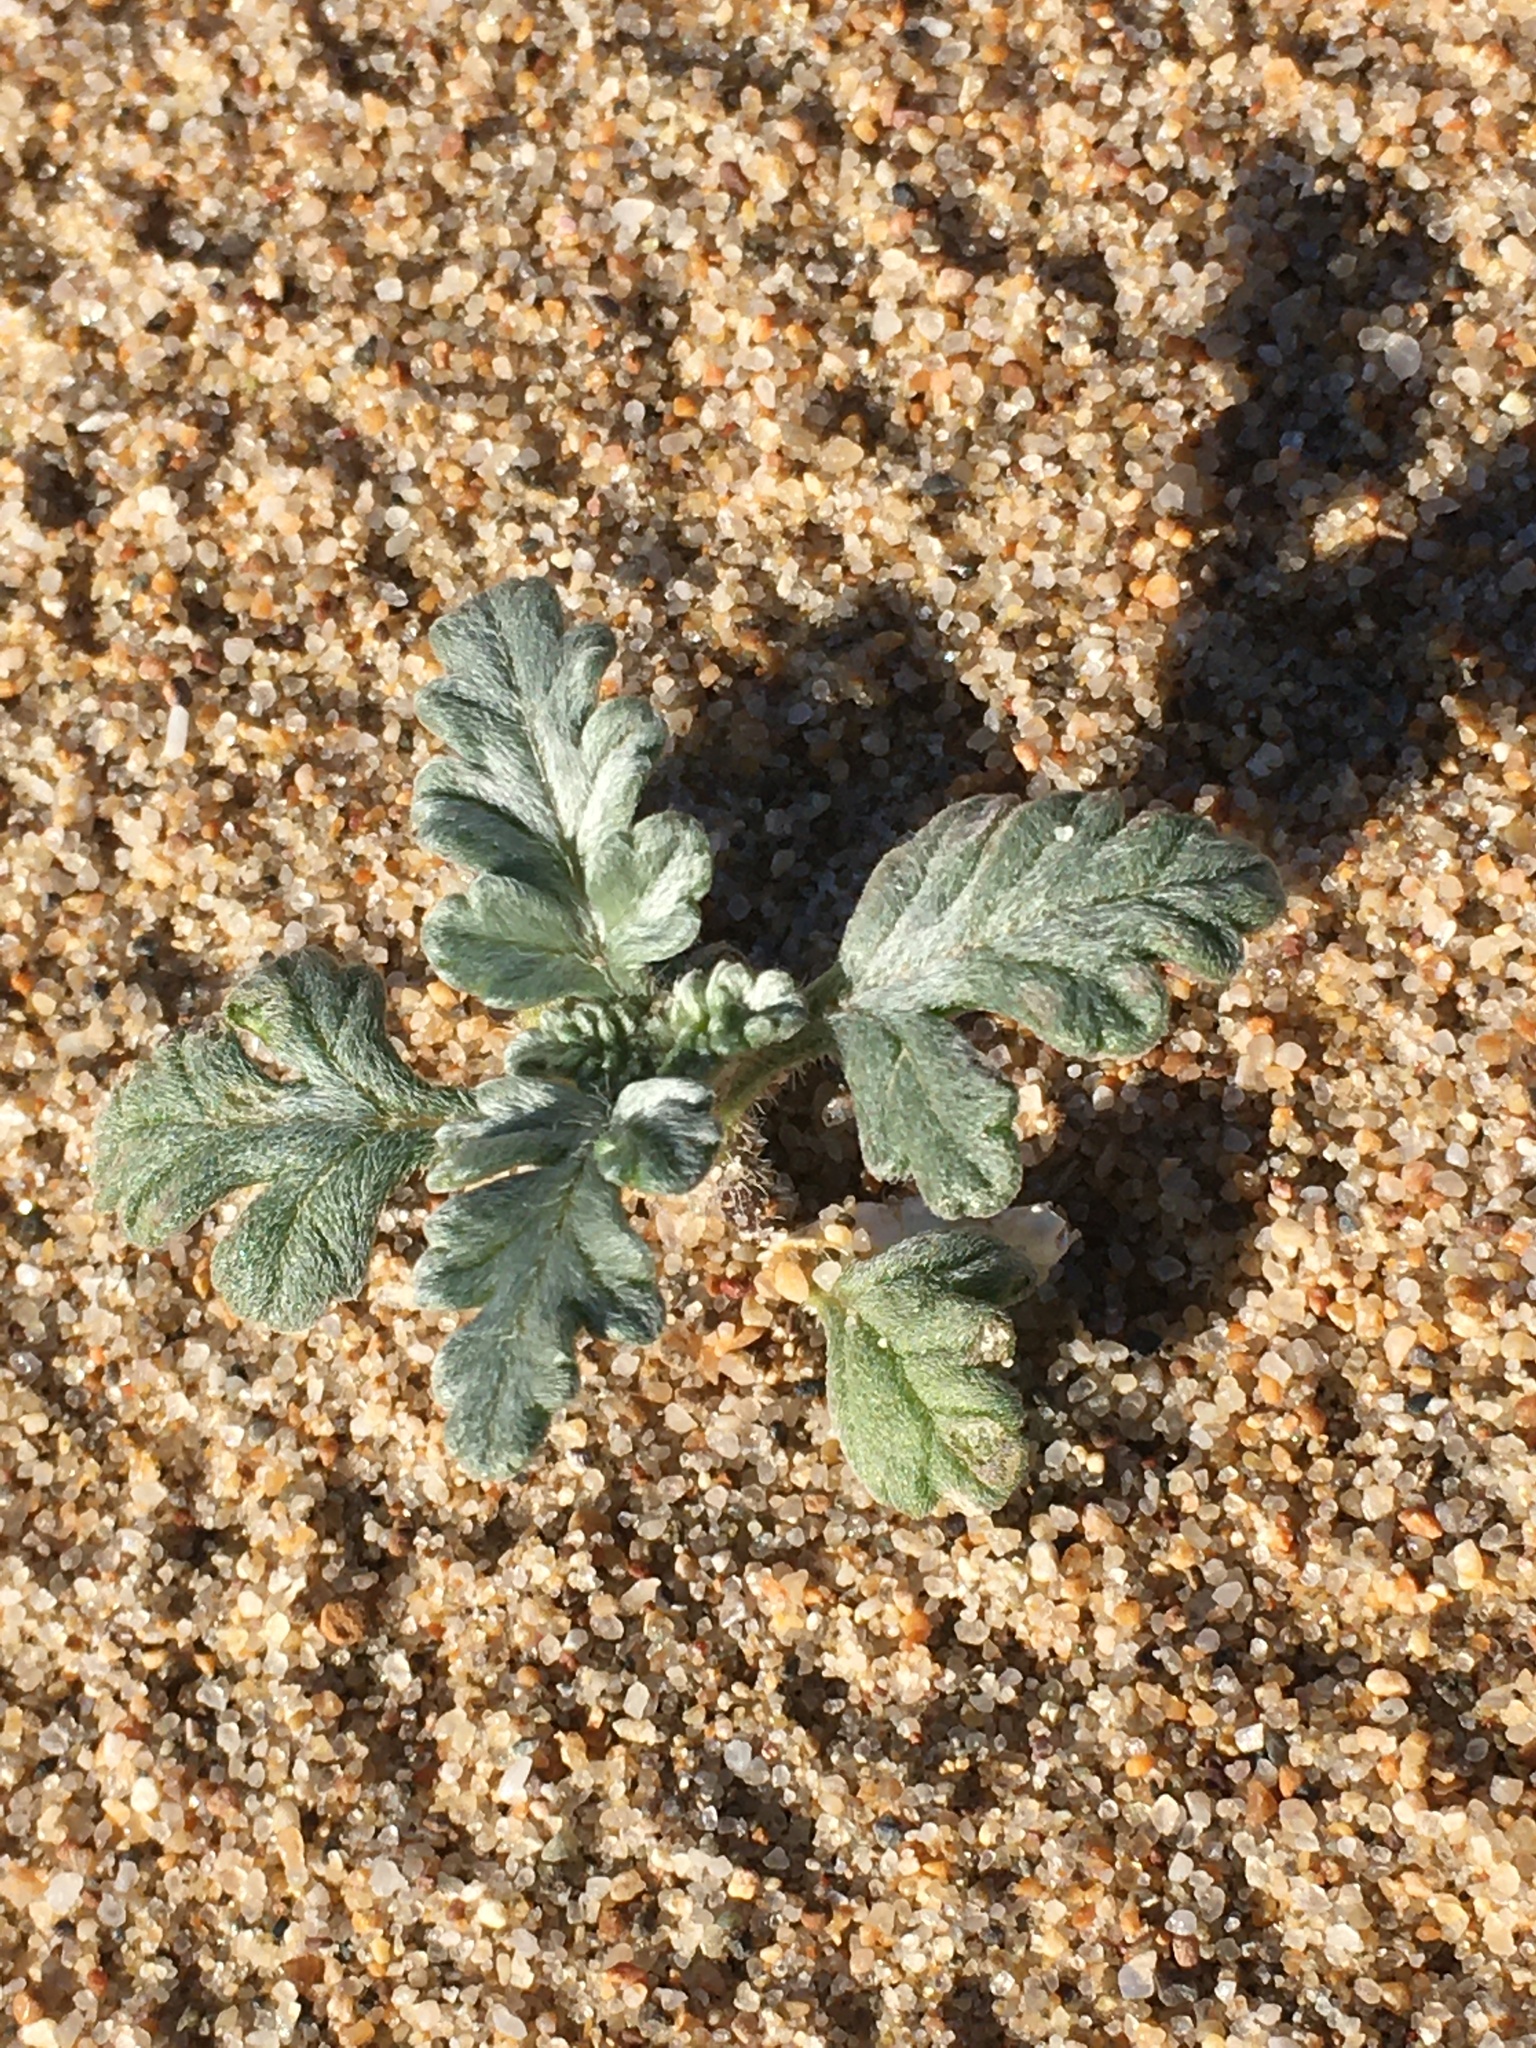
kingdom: Plantae
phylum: Tracheophyta
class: Magnoliopsida
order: Asterales
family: Asteraceae
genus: Ambrosia
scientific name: Ambrosia chamissonis
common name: Beachbur
